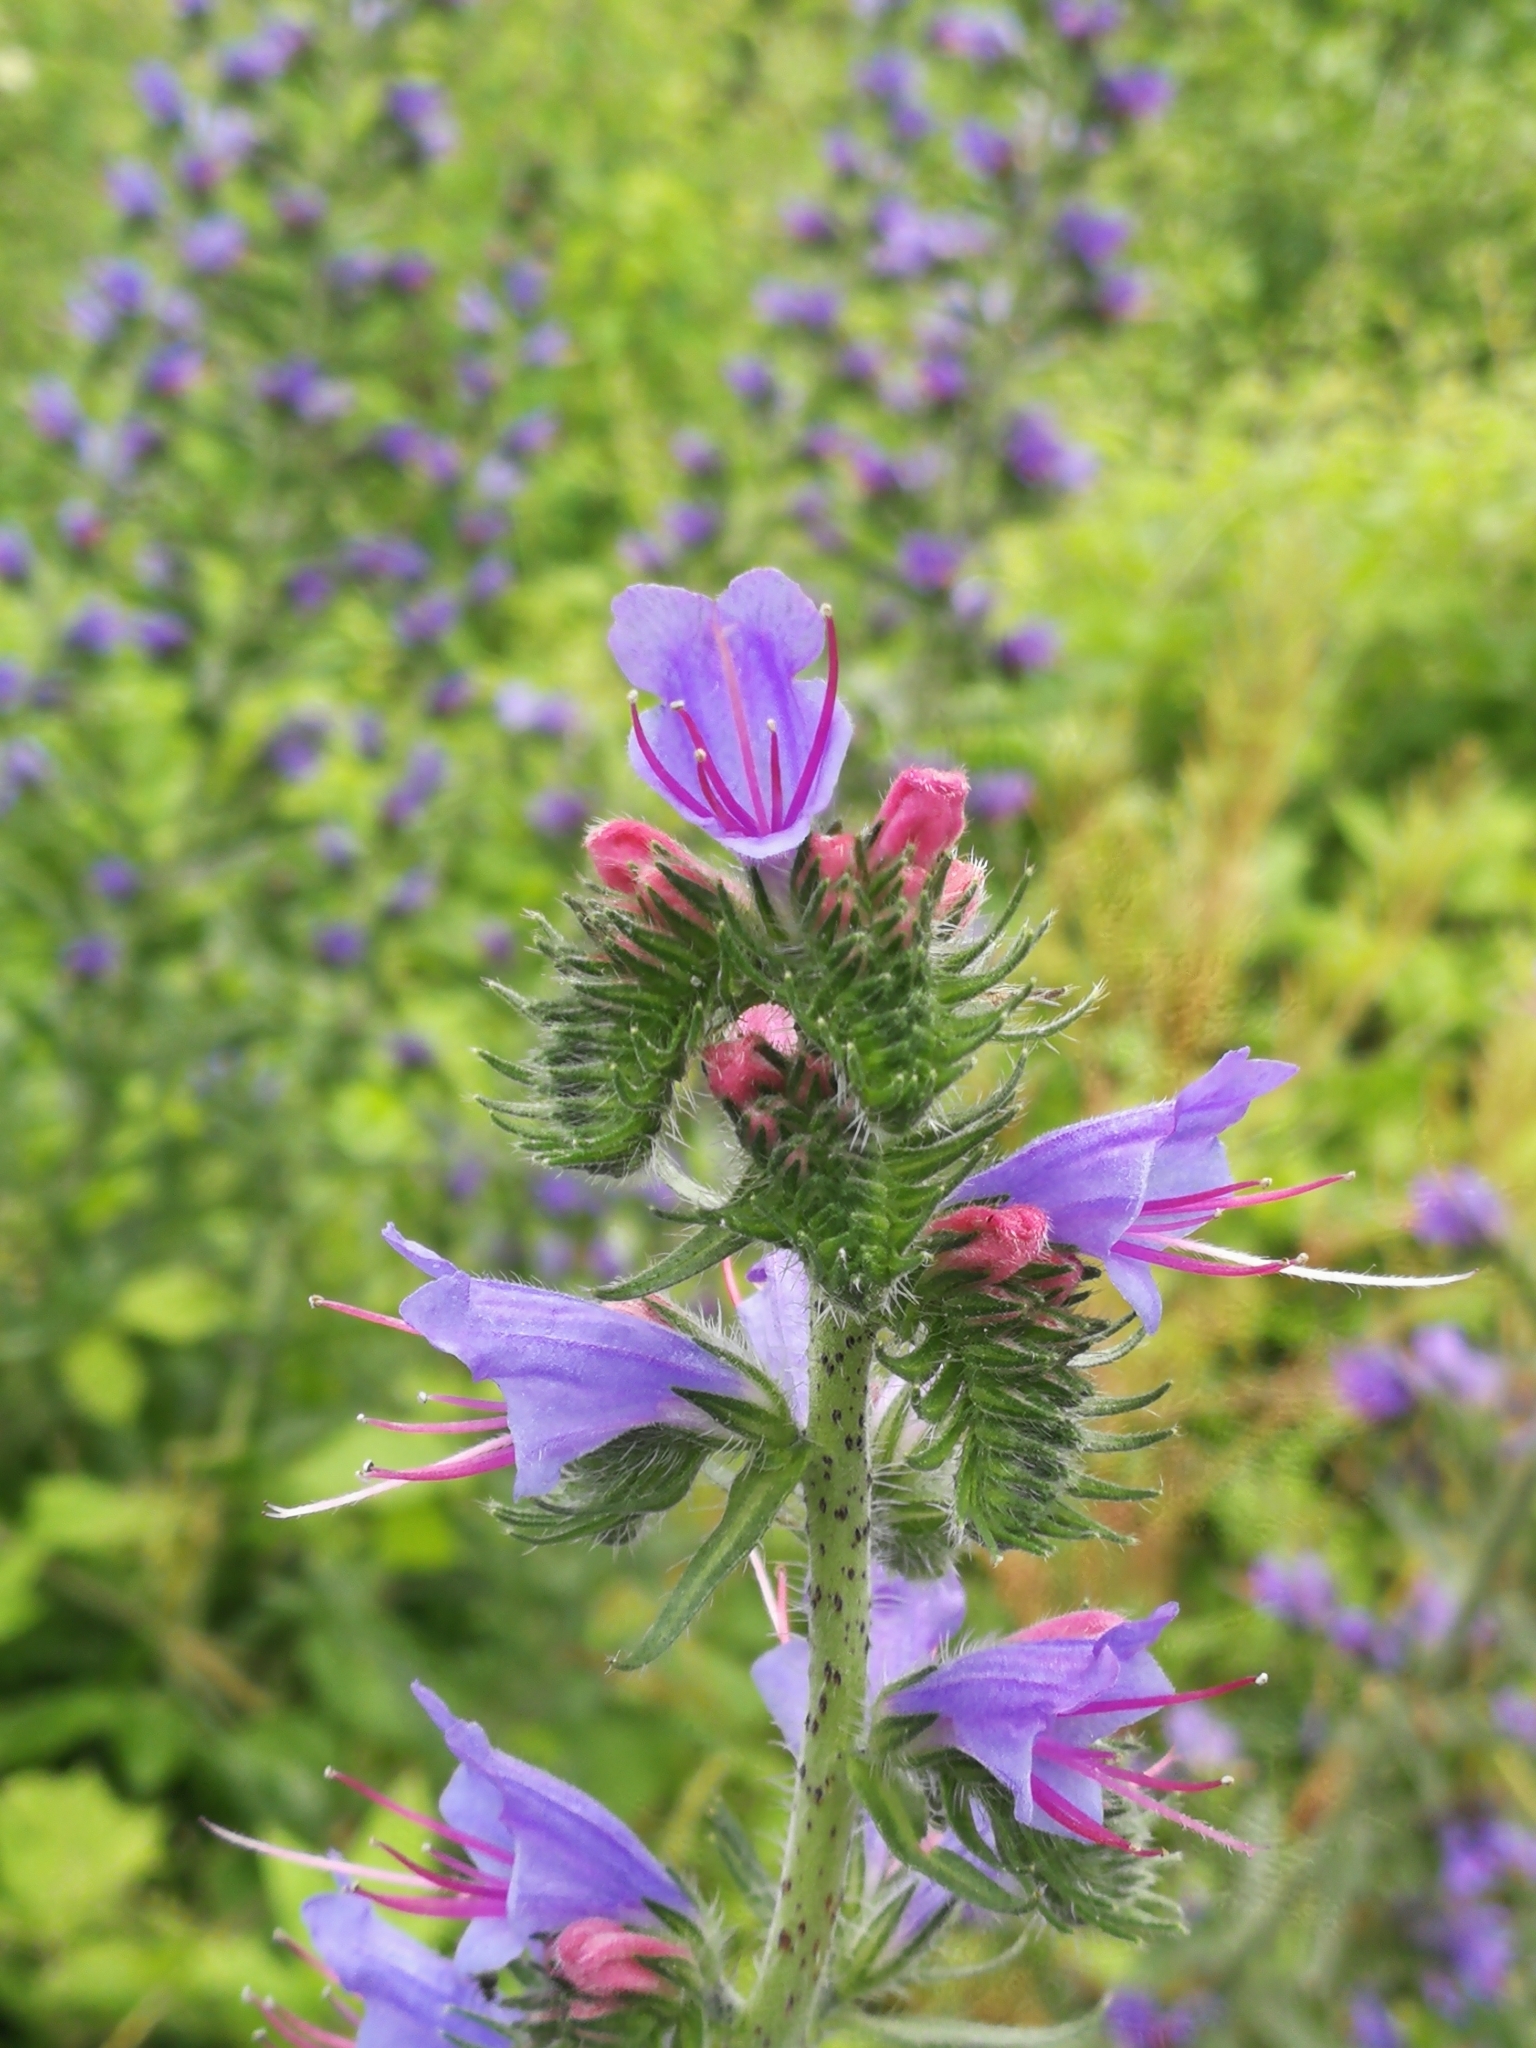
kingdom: Plantae
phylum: Tracheophyta
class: Magnoliopsida
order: Boraginales
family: Boraginaceae
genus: Echium
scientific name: Echium vulgare
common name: Common viper's bugloss
